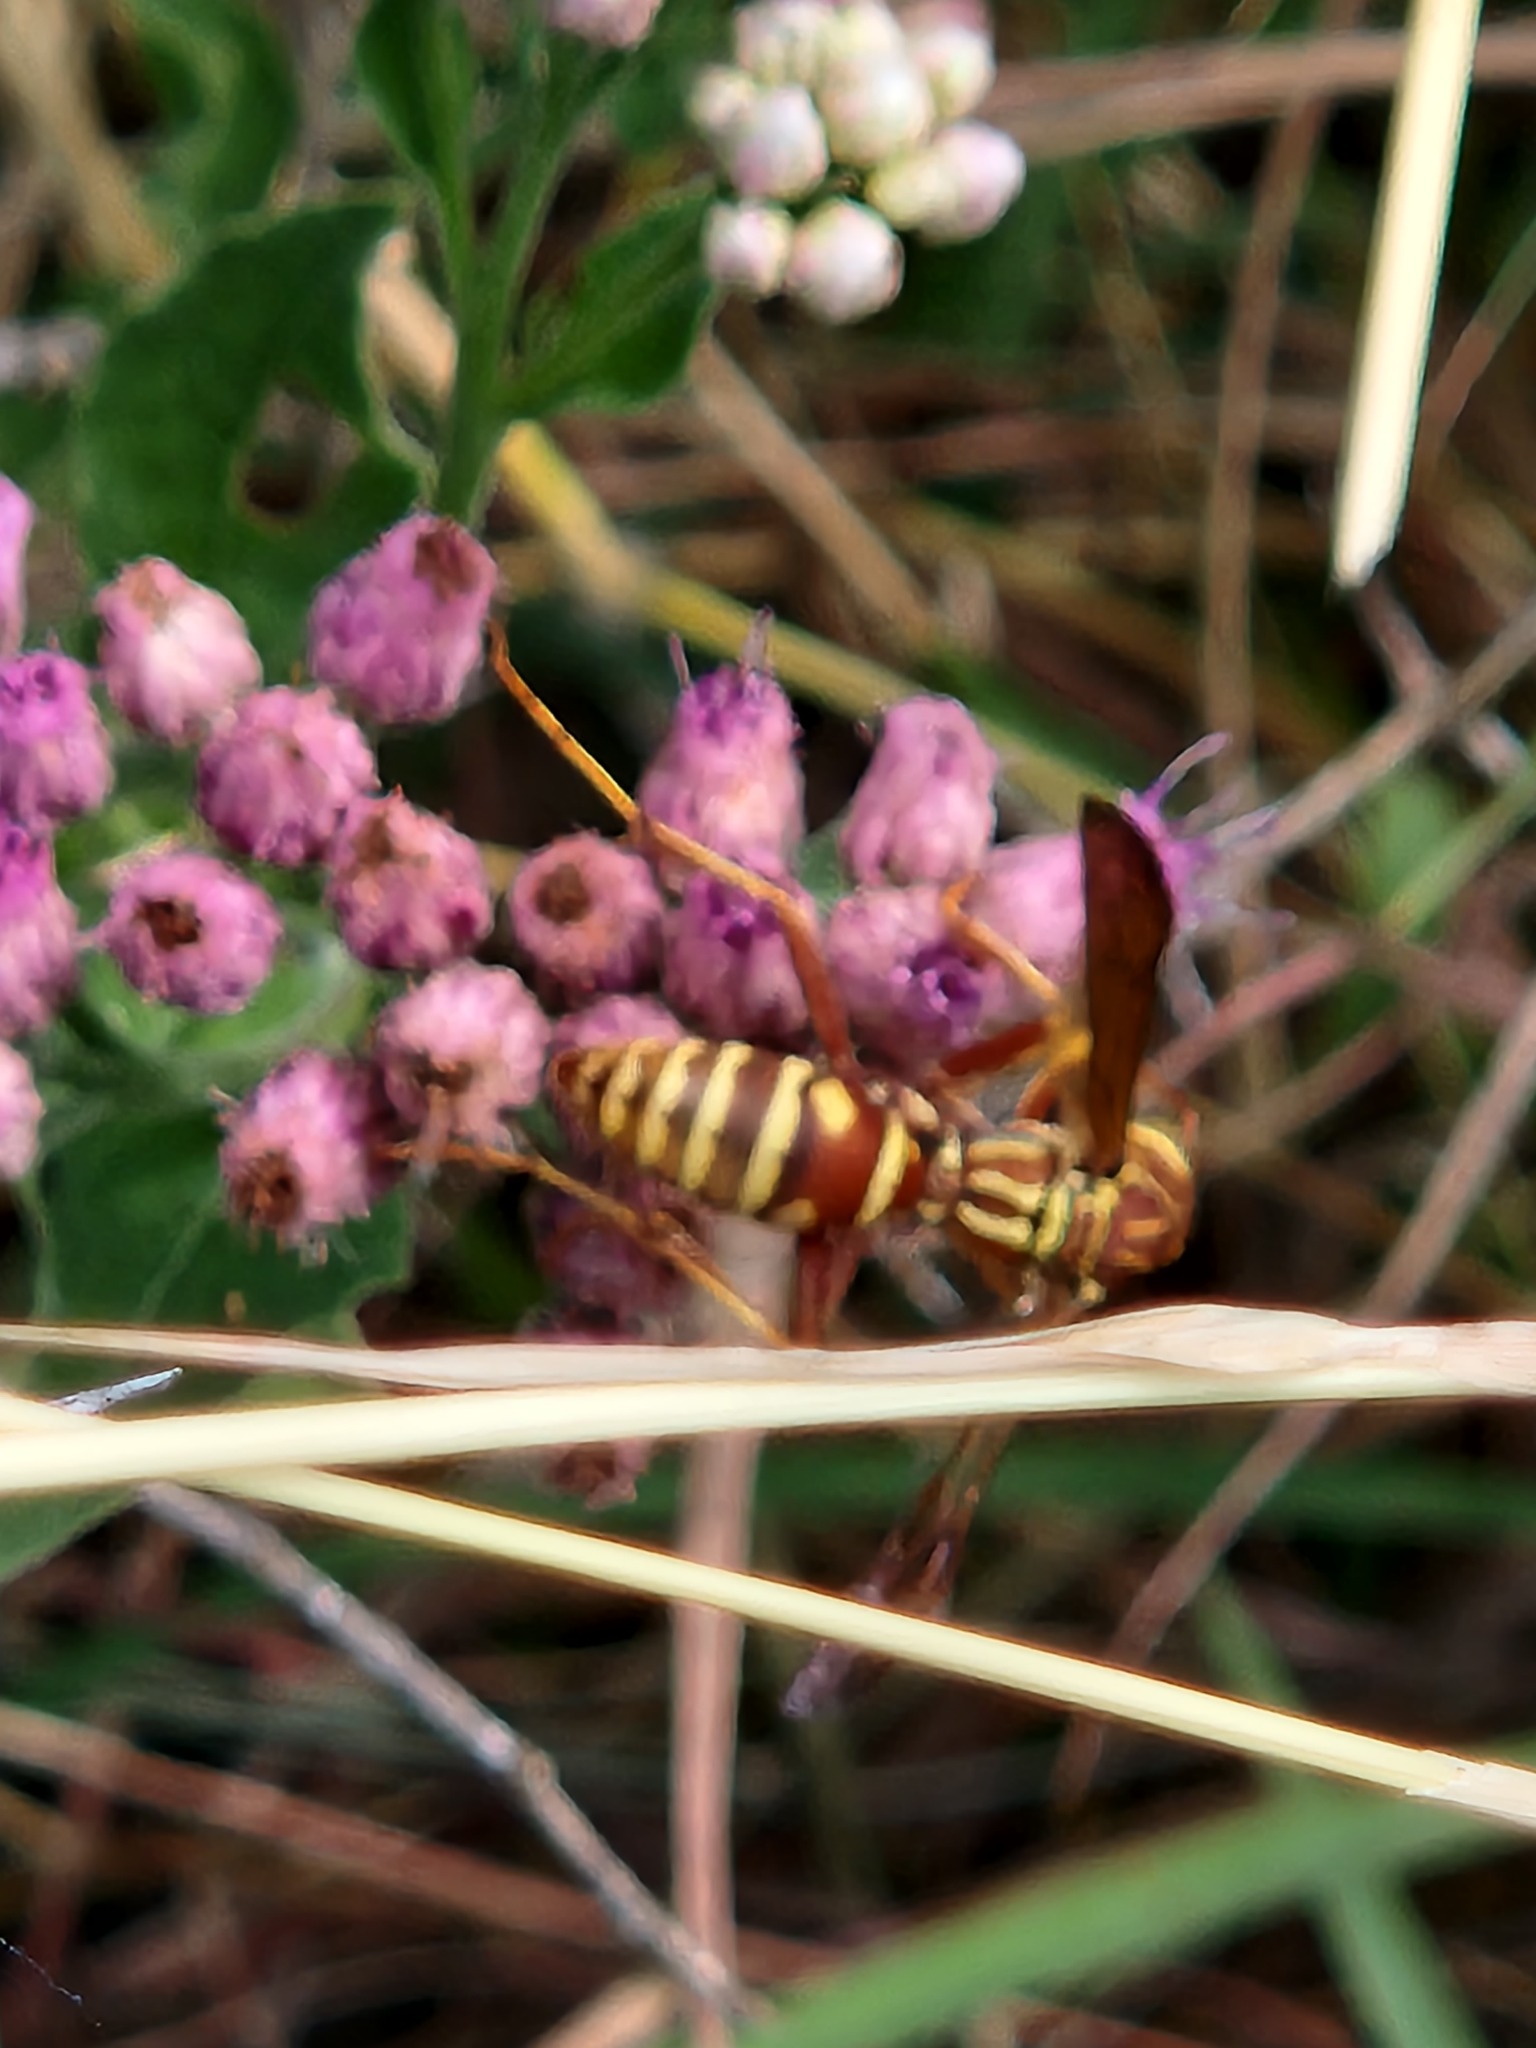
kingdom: Animalia
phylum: Arthropoda
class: Insecta
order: Hymenoptera
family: Eumenidae
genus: Polistes
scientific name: Polistes apachus
